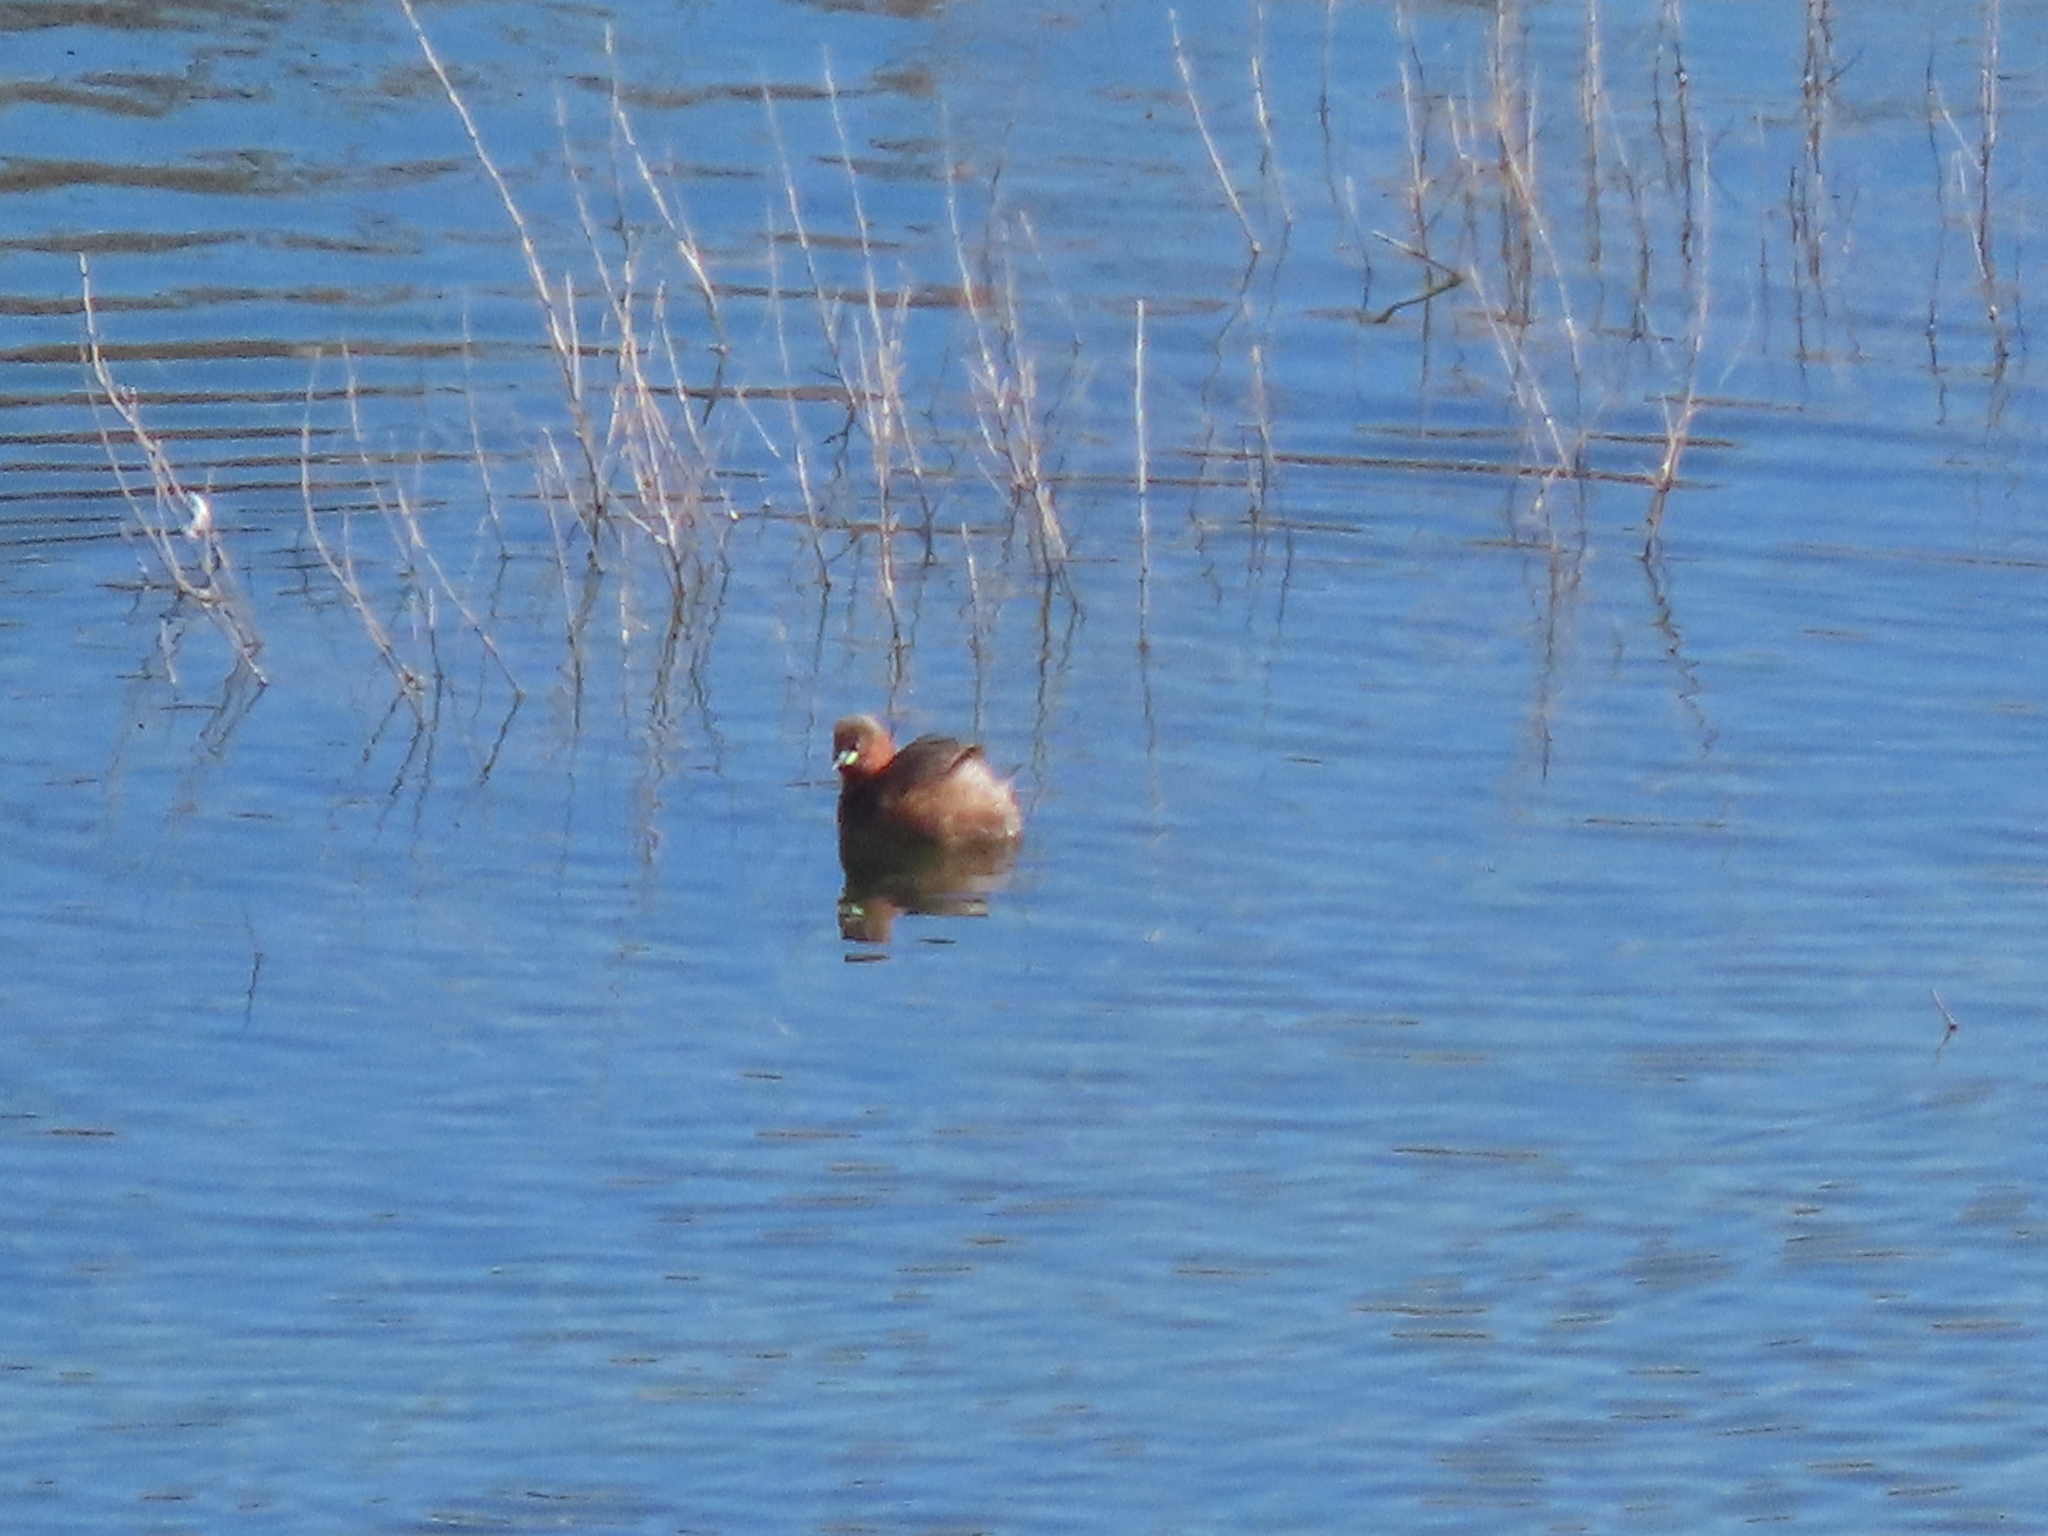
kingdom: Animalia
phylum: Chordata
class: Aves
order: Podicipediformes
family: Podicipedidae
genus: Tachybaptus
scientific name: Tachybaptus ruficollis
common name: Little grebe
